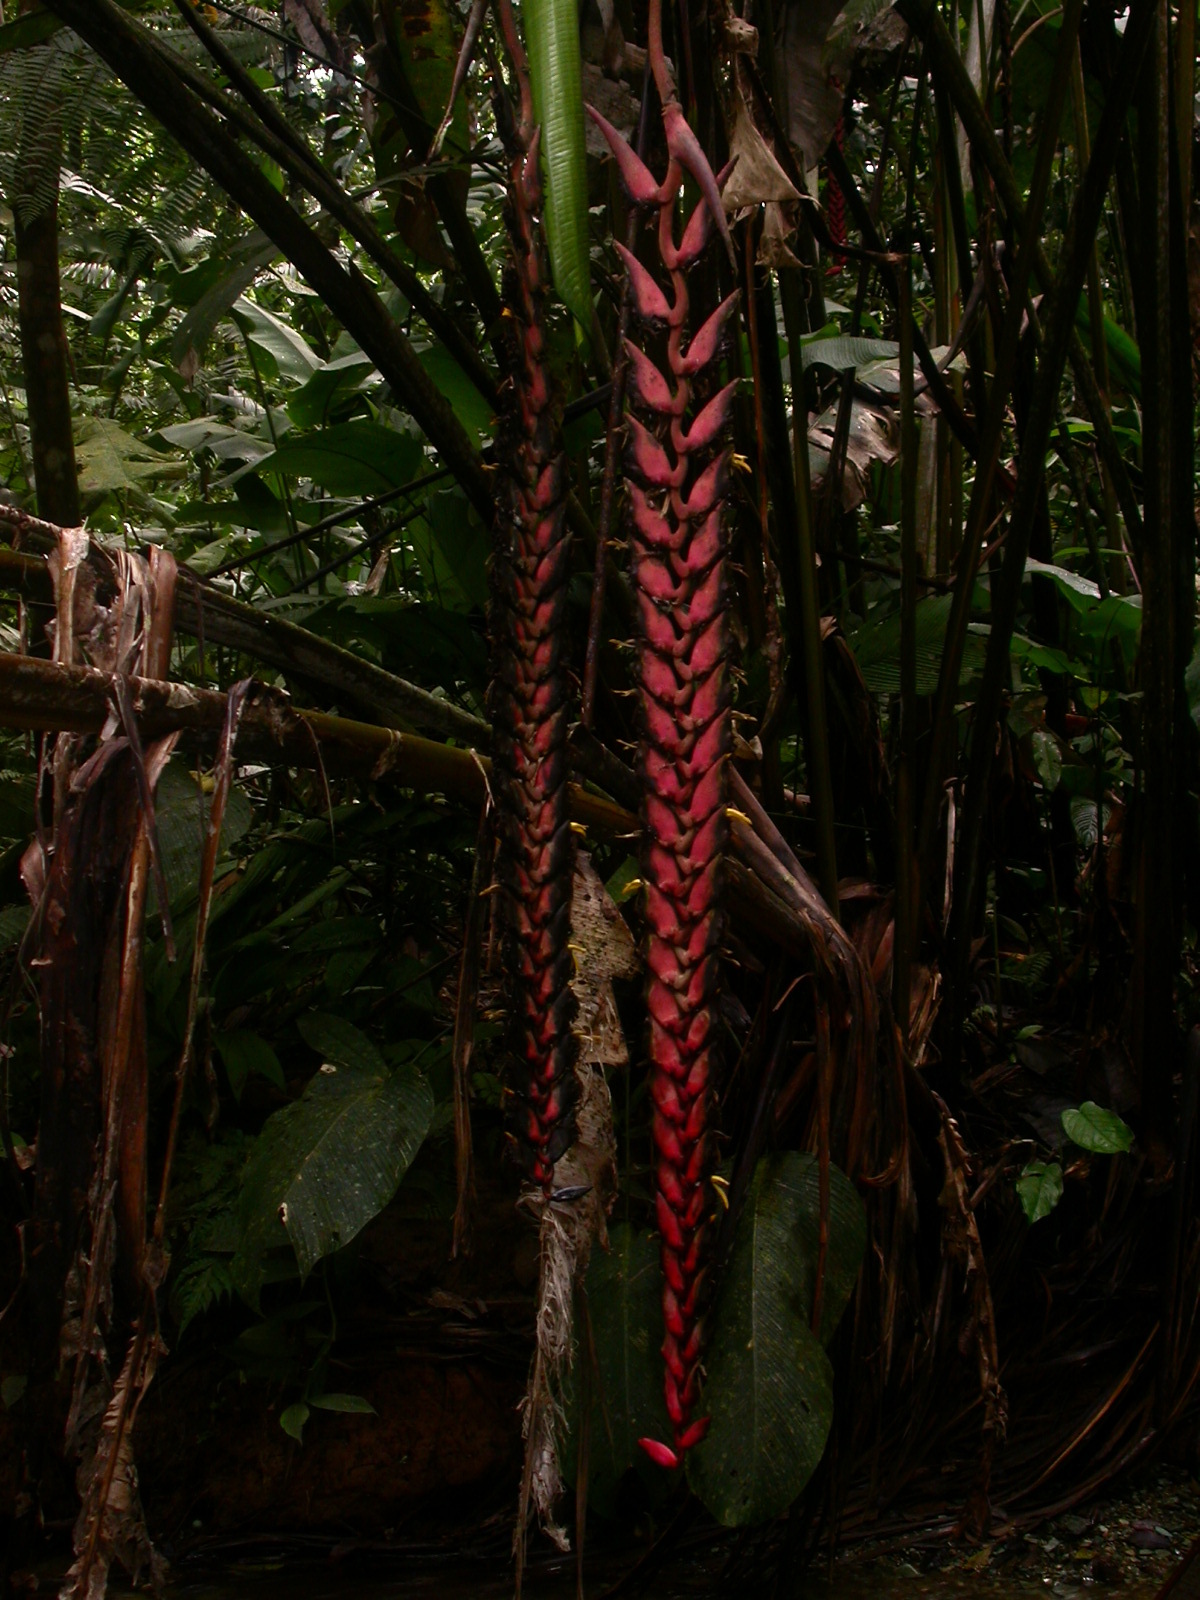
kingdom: Plantae
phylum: Tracheophyta
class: Liliopsida
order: Zingiberales
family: Heliconiaceae
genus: Heliconia
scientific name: Heliconia stilesii
